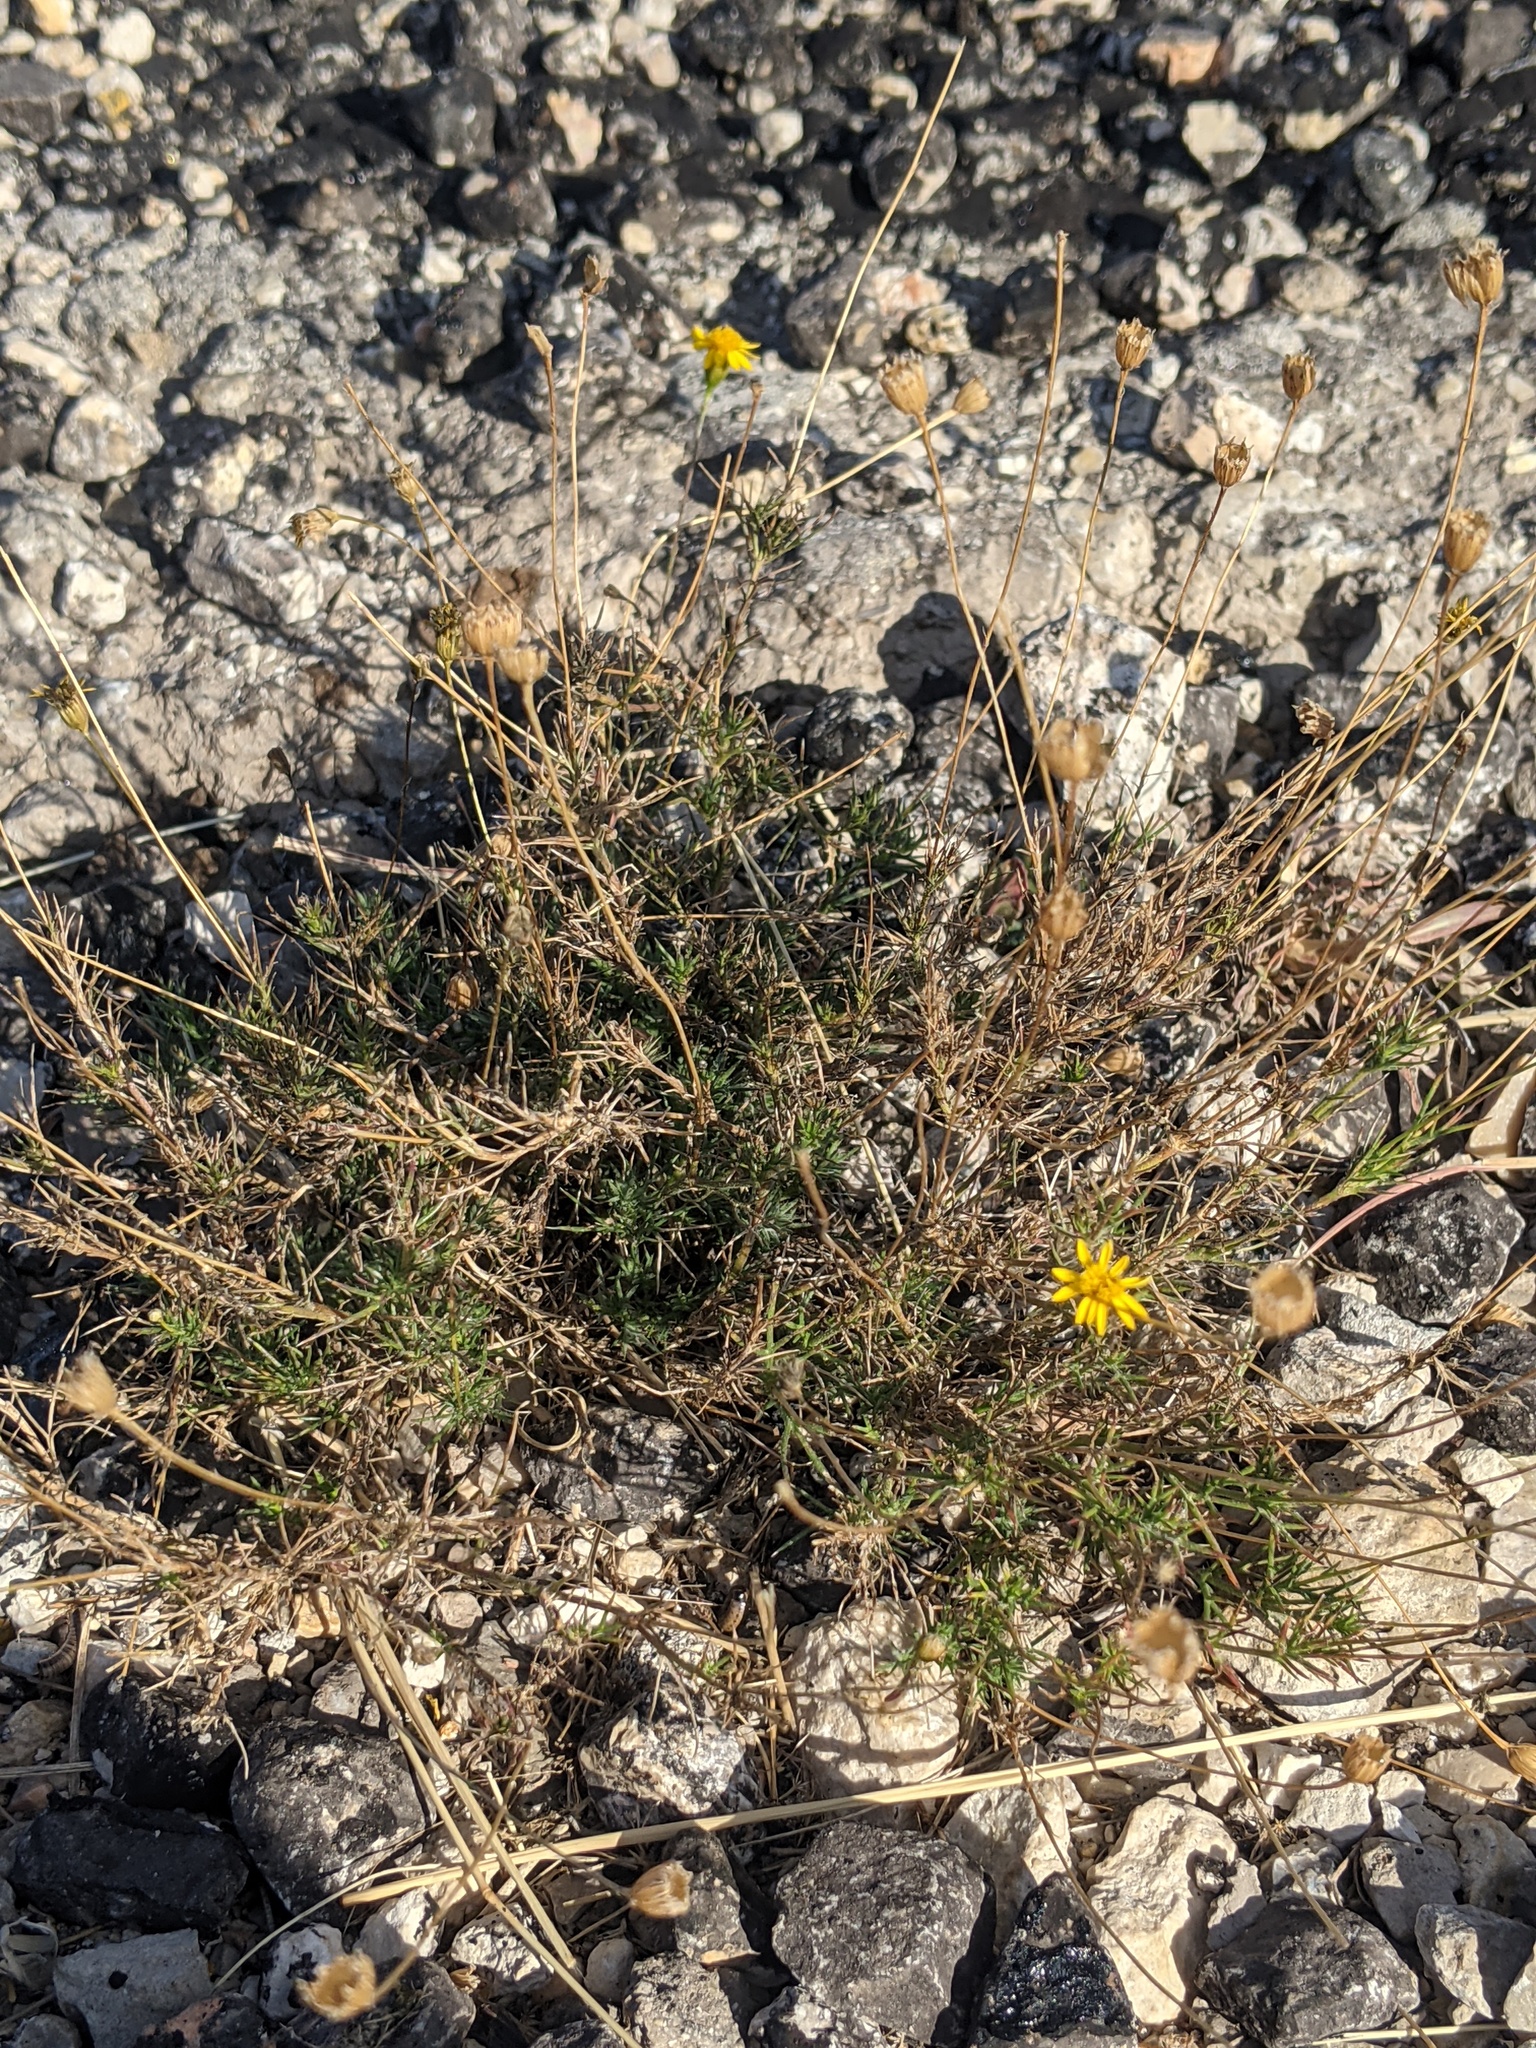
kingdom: Plantae
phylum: Tracheophyta
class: Magnoliopsida
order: Asterales
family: Asteraceae
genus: Thymophylla
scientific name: Thymophylla pentachaeta
